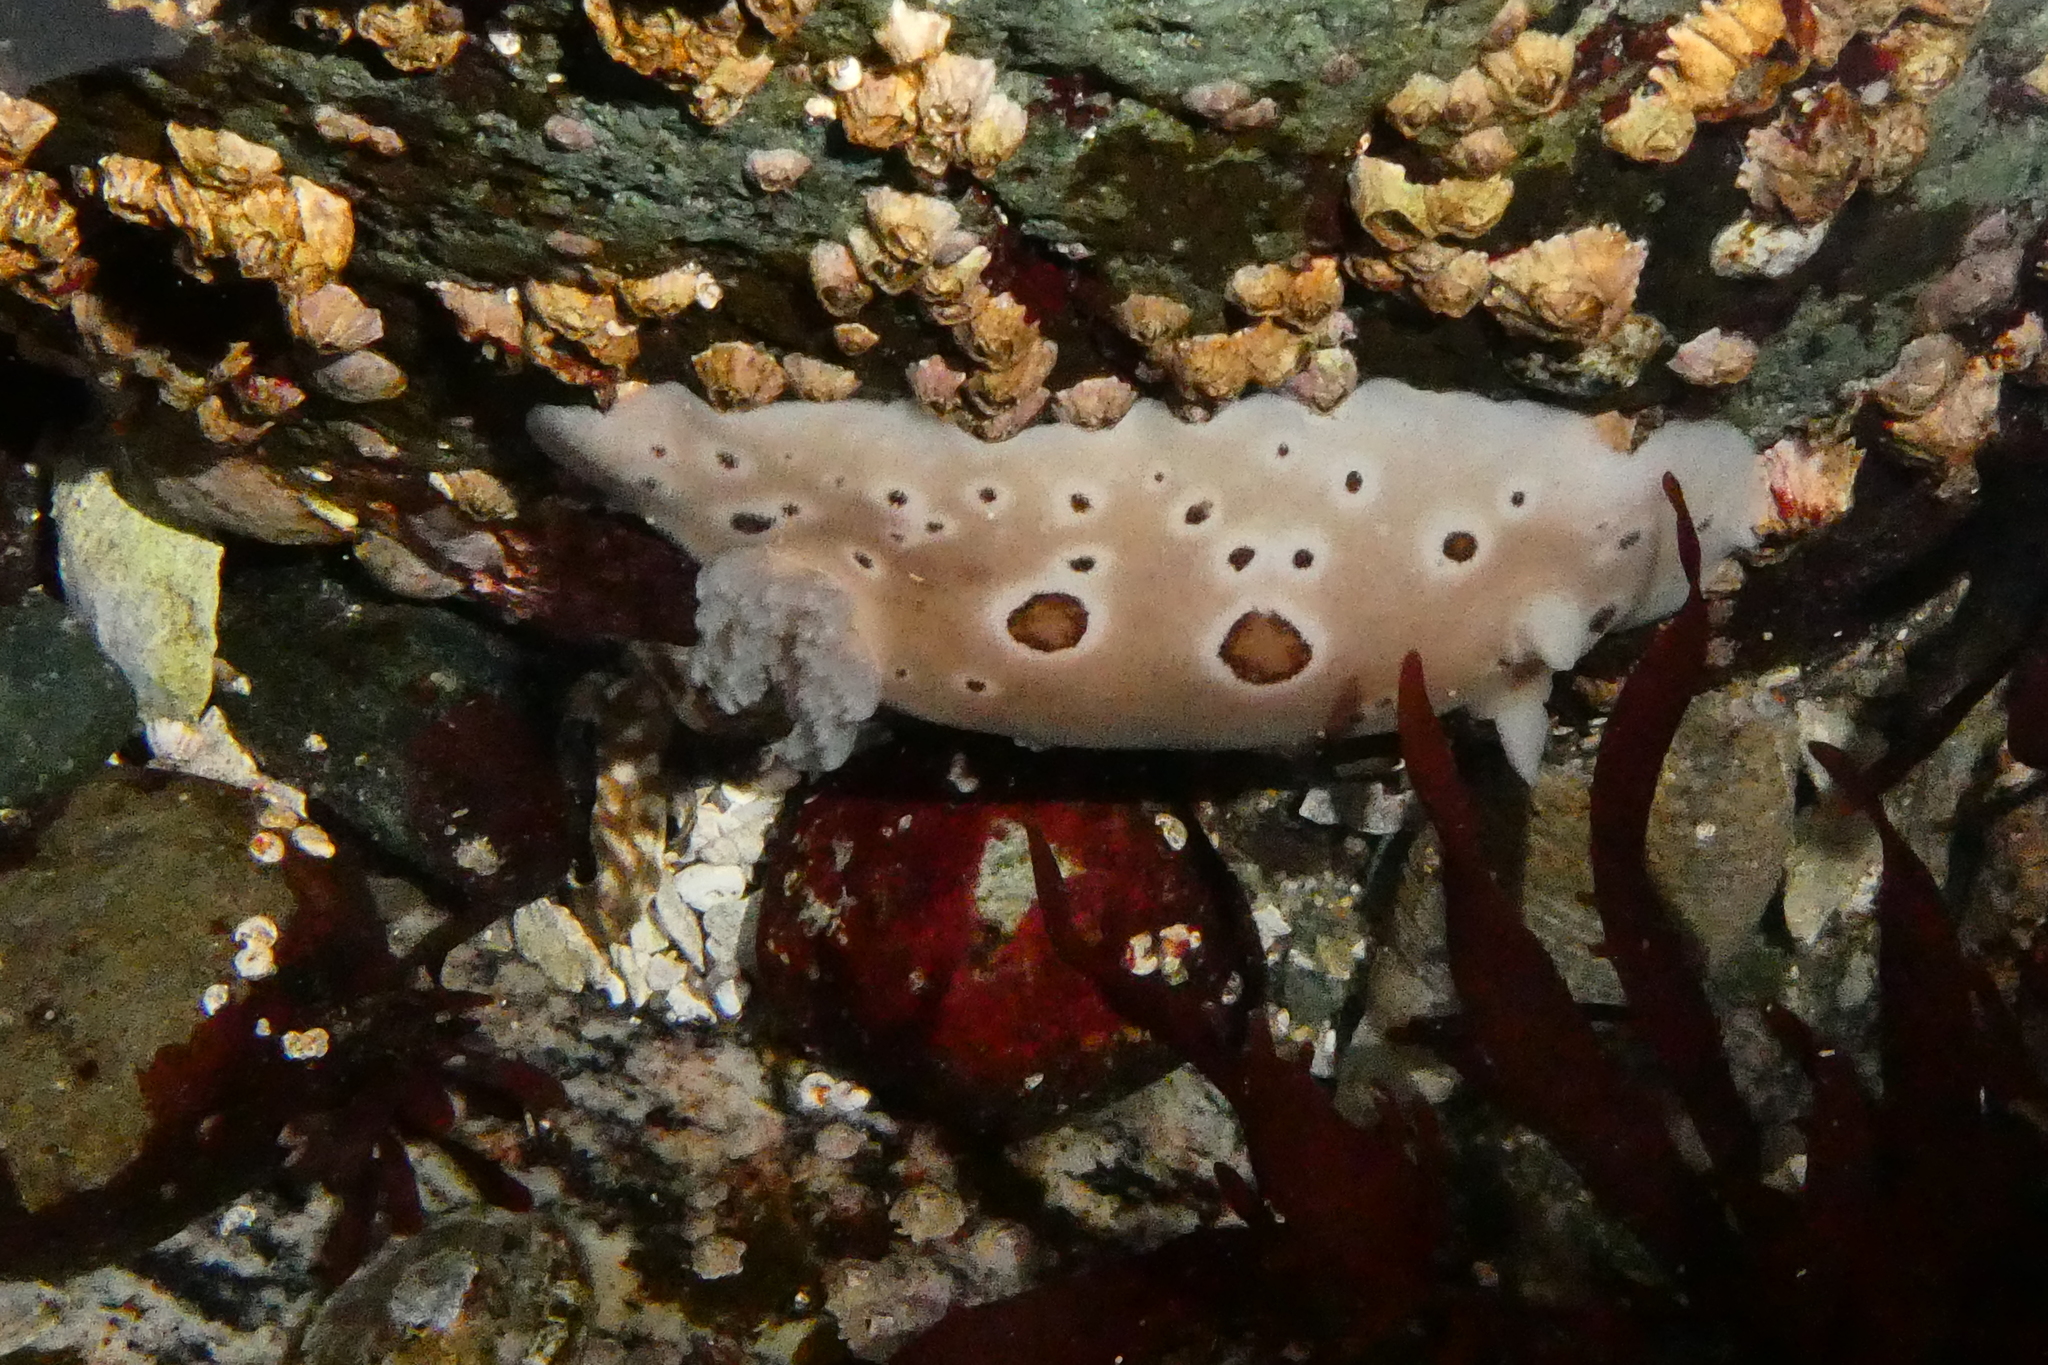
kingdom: Animalia
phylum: Mollusca
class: Gastropoda
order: Nudibranchia
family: Discodorididae
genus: Diaulula
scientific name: Diaulula odonoghuei
